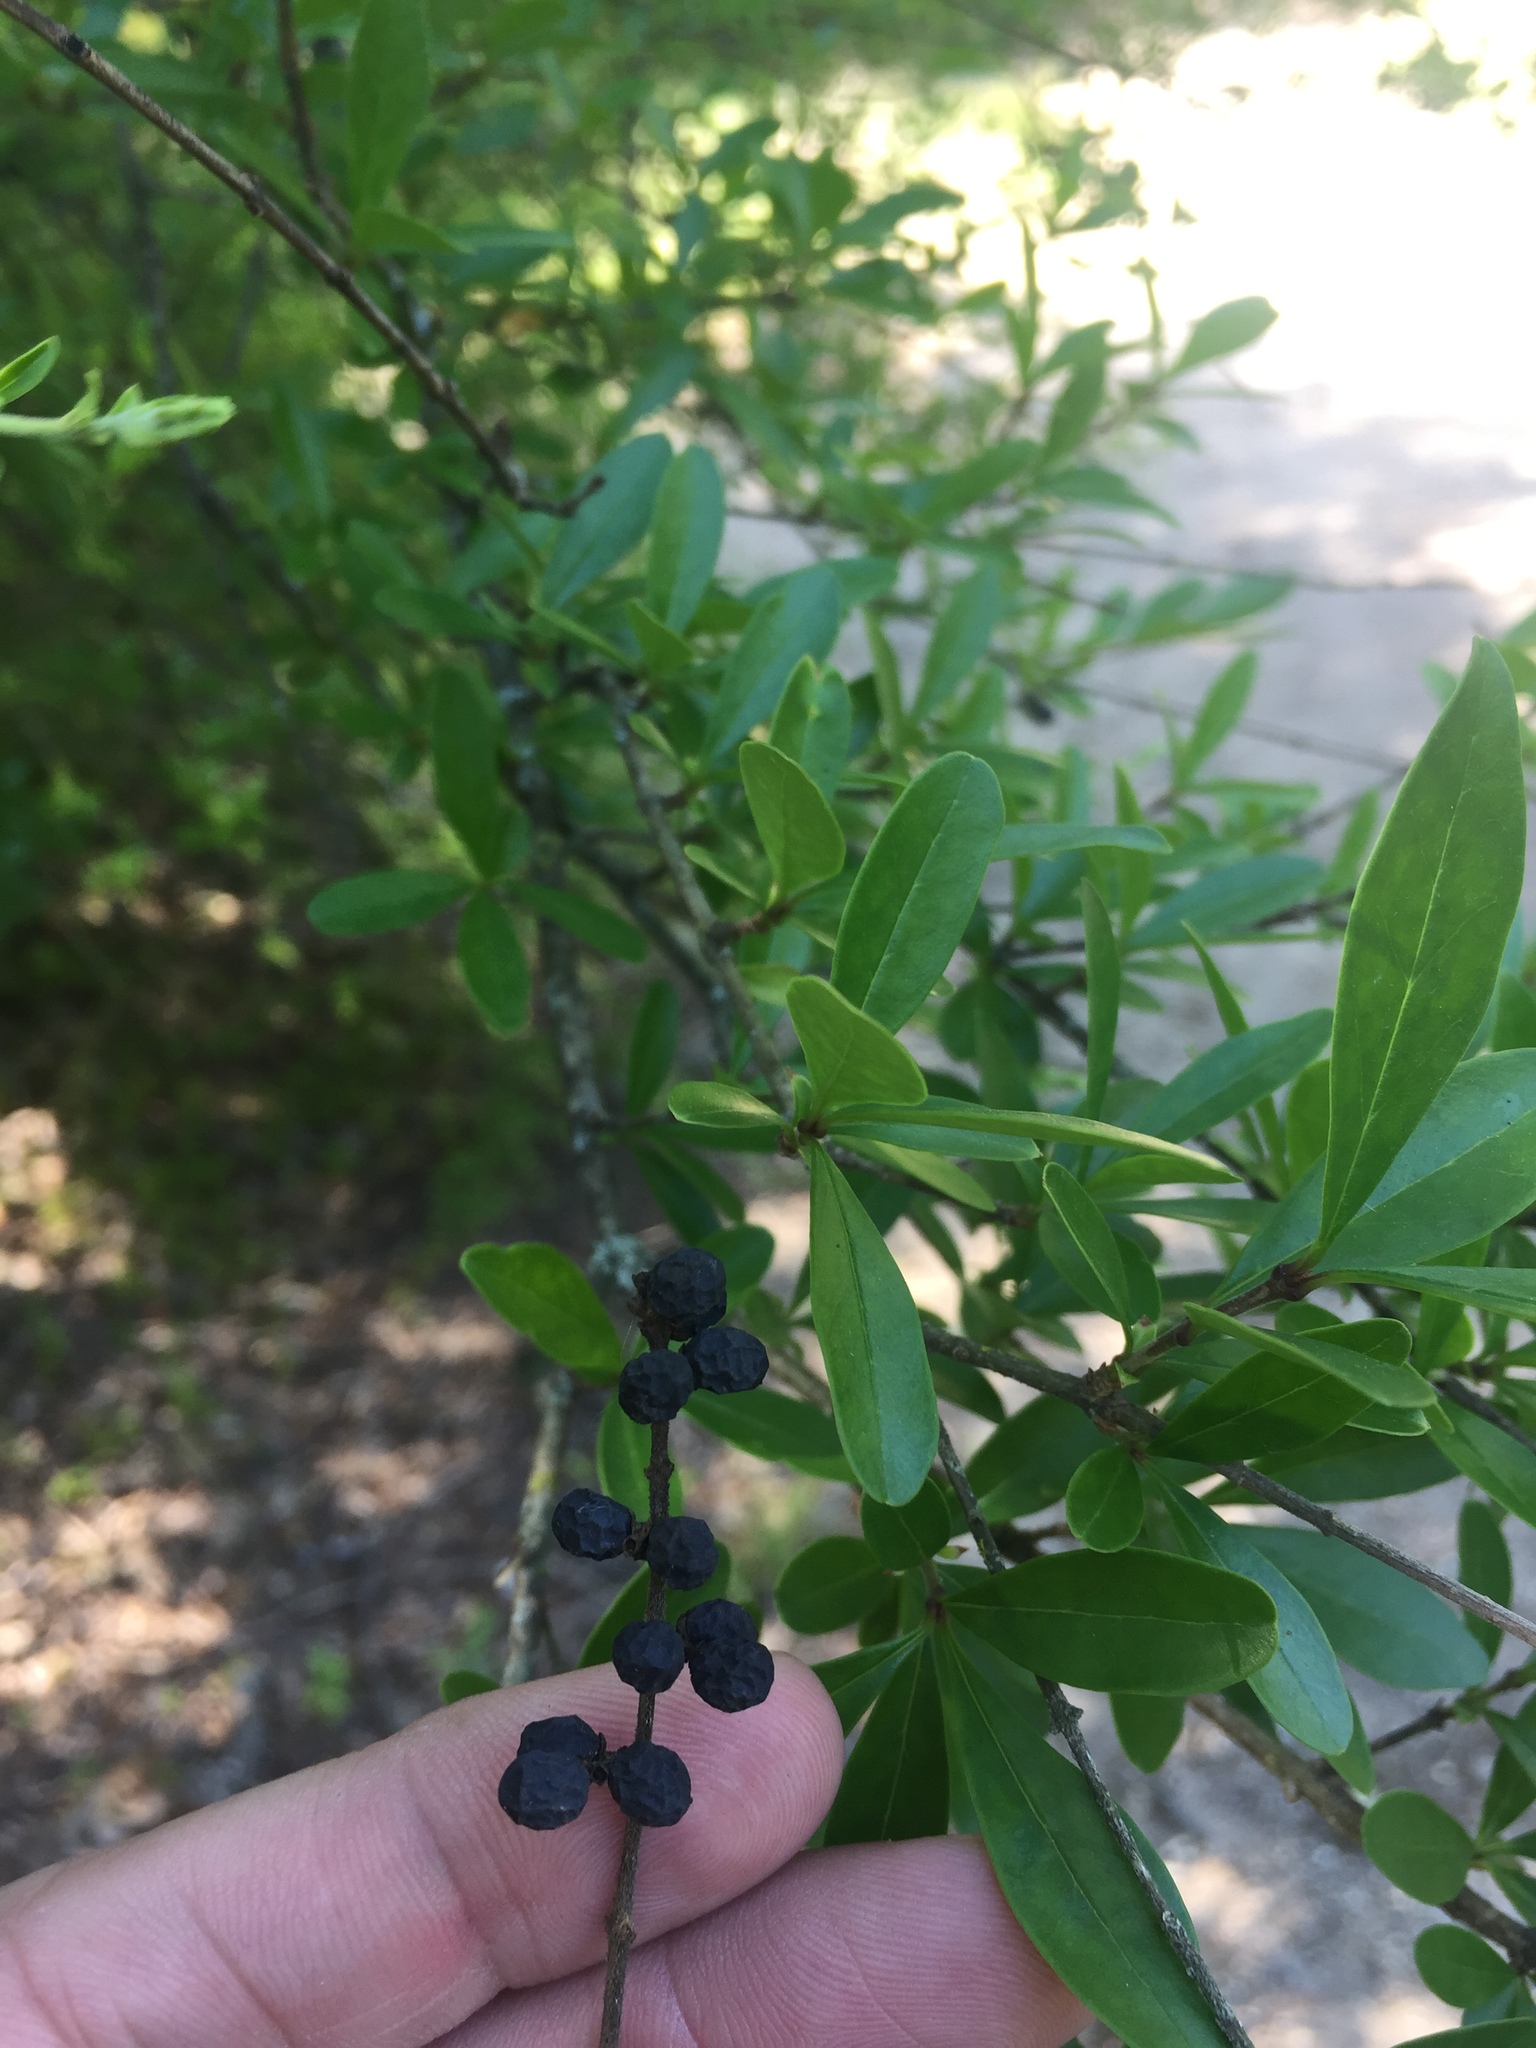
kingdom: Plantae
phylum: Tracheophyta
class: Magnoliopsida
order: Lamiales
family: Oleaceae
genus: Ligustrum
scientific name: Ligustrum quihoui
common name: Waxyleaf privet
